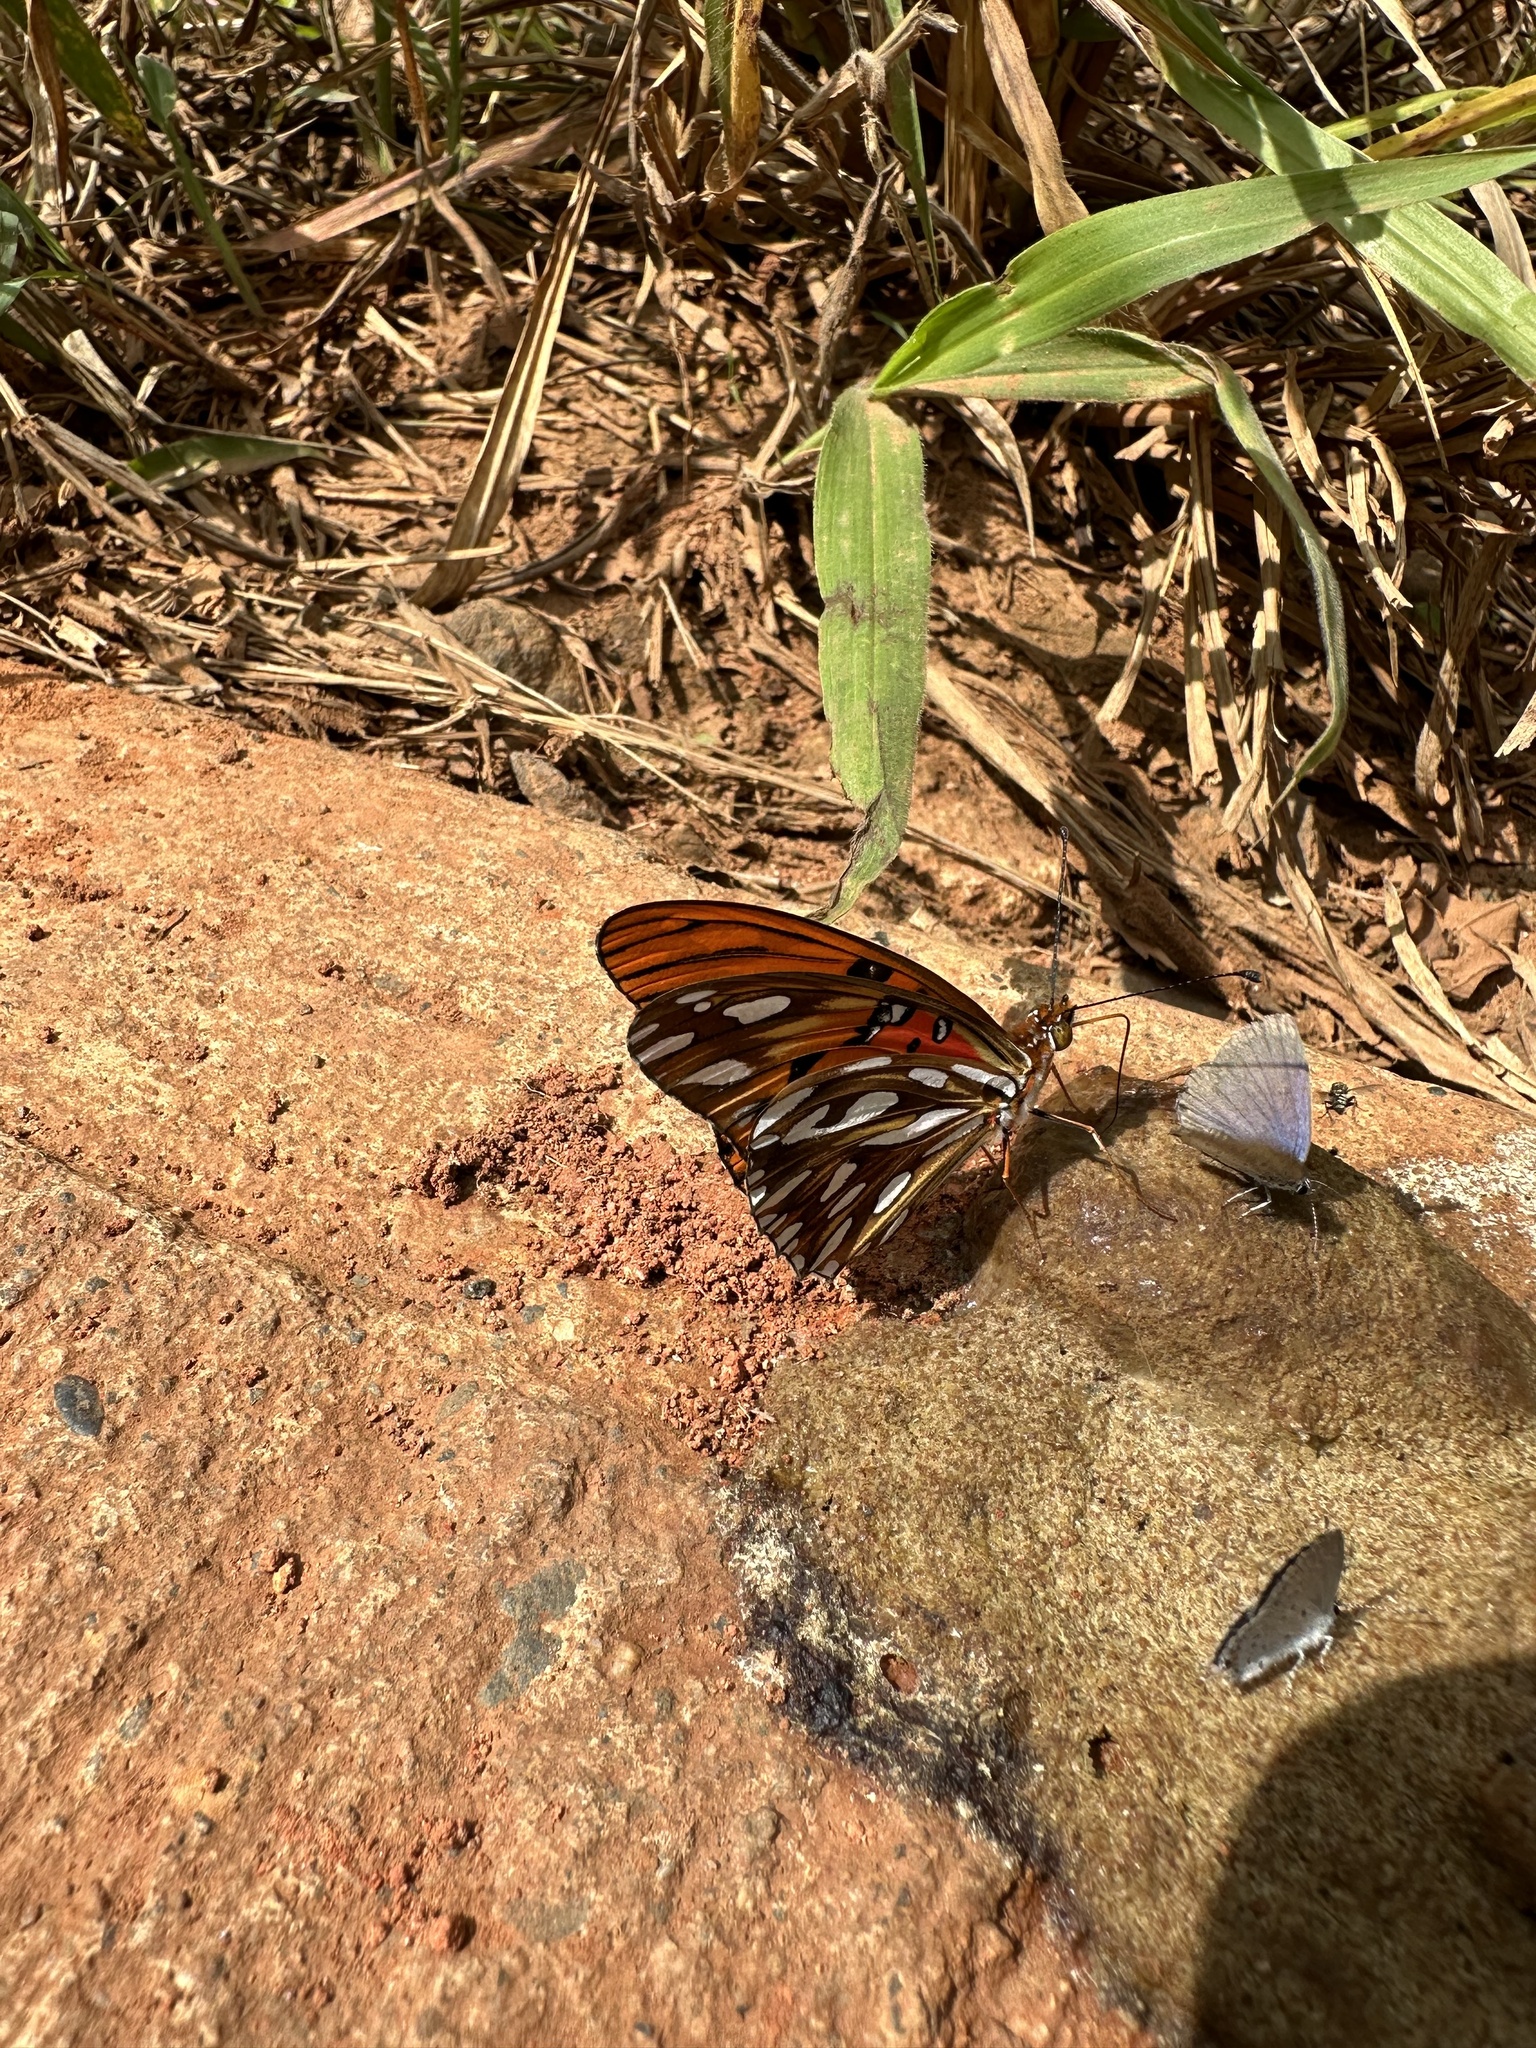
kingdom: Animalia
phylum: Arthropoda
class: Insecta
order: Lepidoptera
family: Nymphalidae
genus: Dione
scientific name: Dione vanillae
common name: Gulf fritillary
